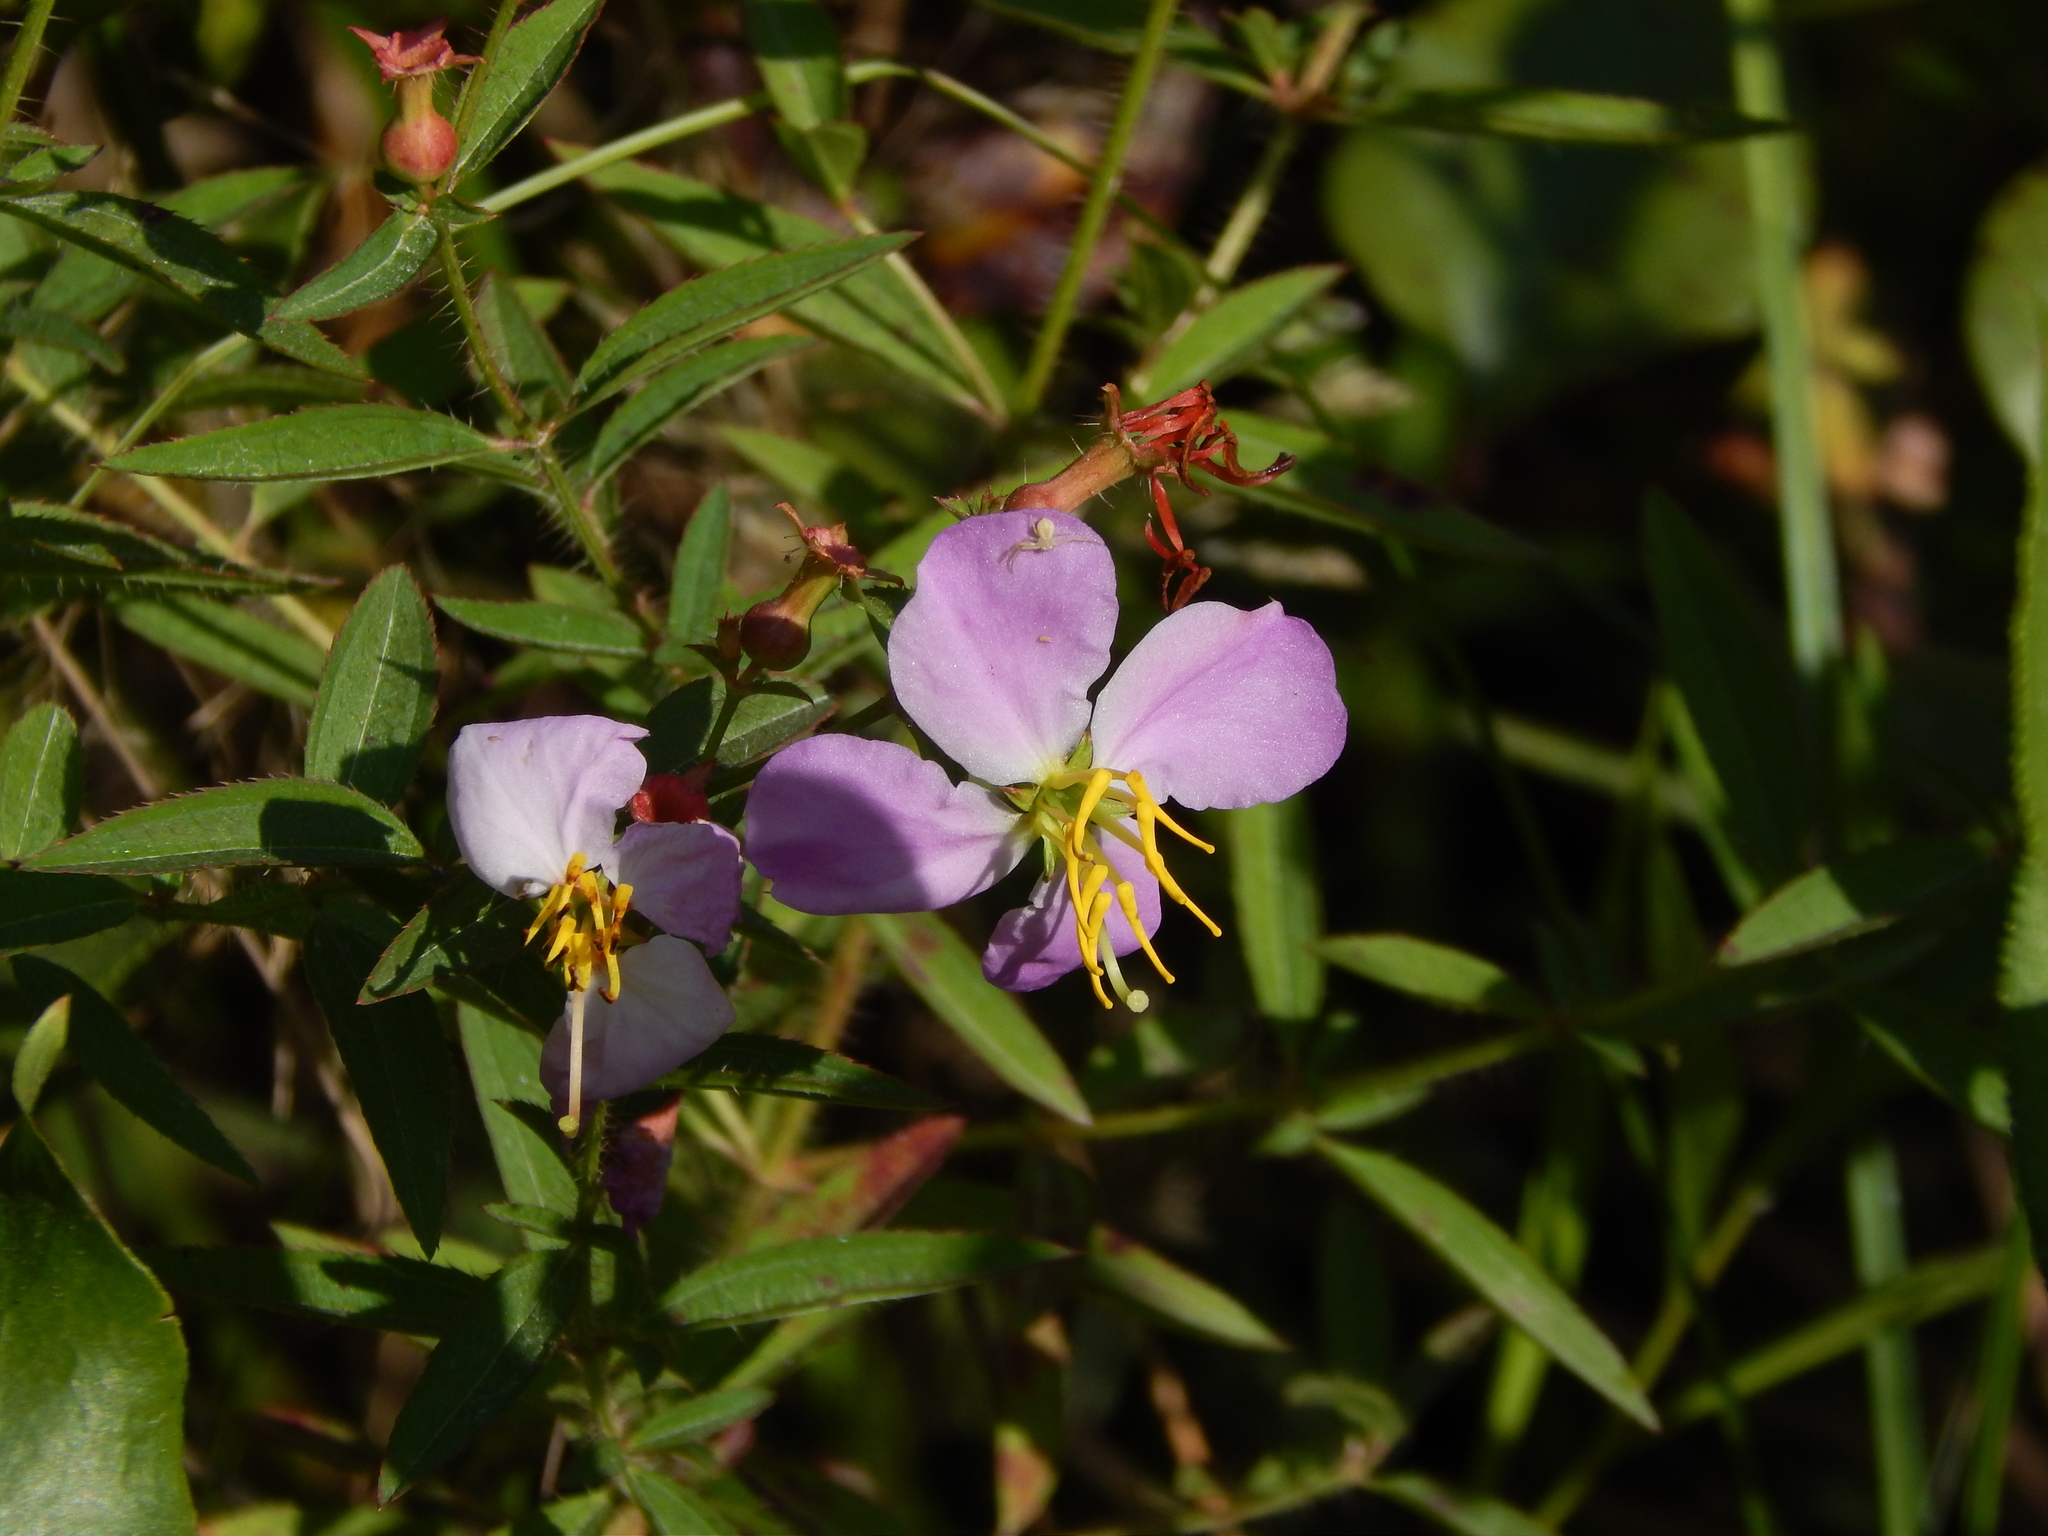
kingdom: Plantae
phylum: Tracheophyta
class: Magnoliopsida
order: Myrtales
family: Melastomataceae
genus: Rhexia
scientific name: Rhexia mariana
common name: Dull meadow-pitcher
